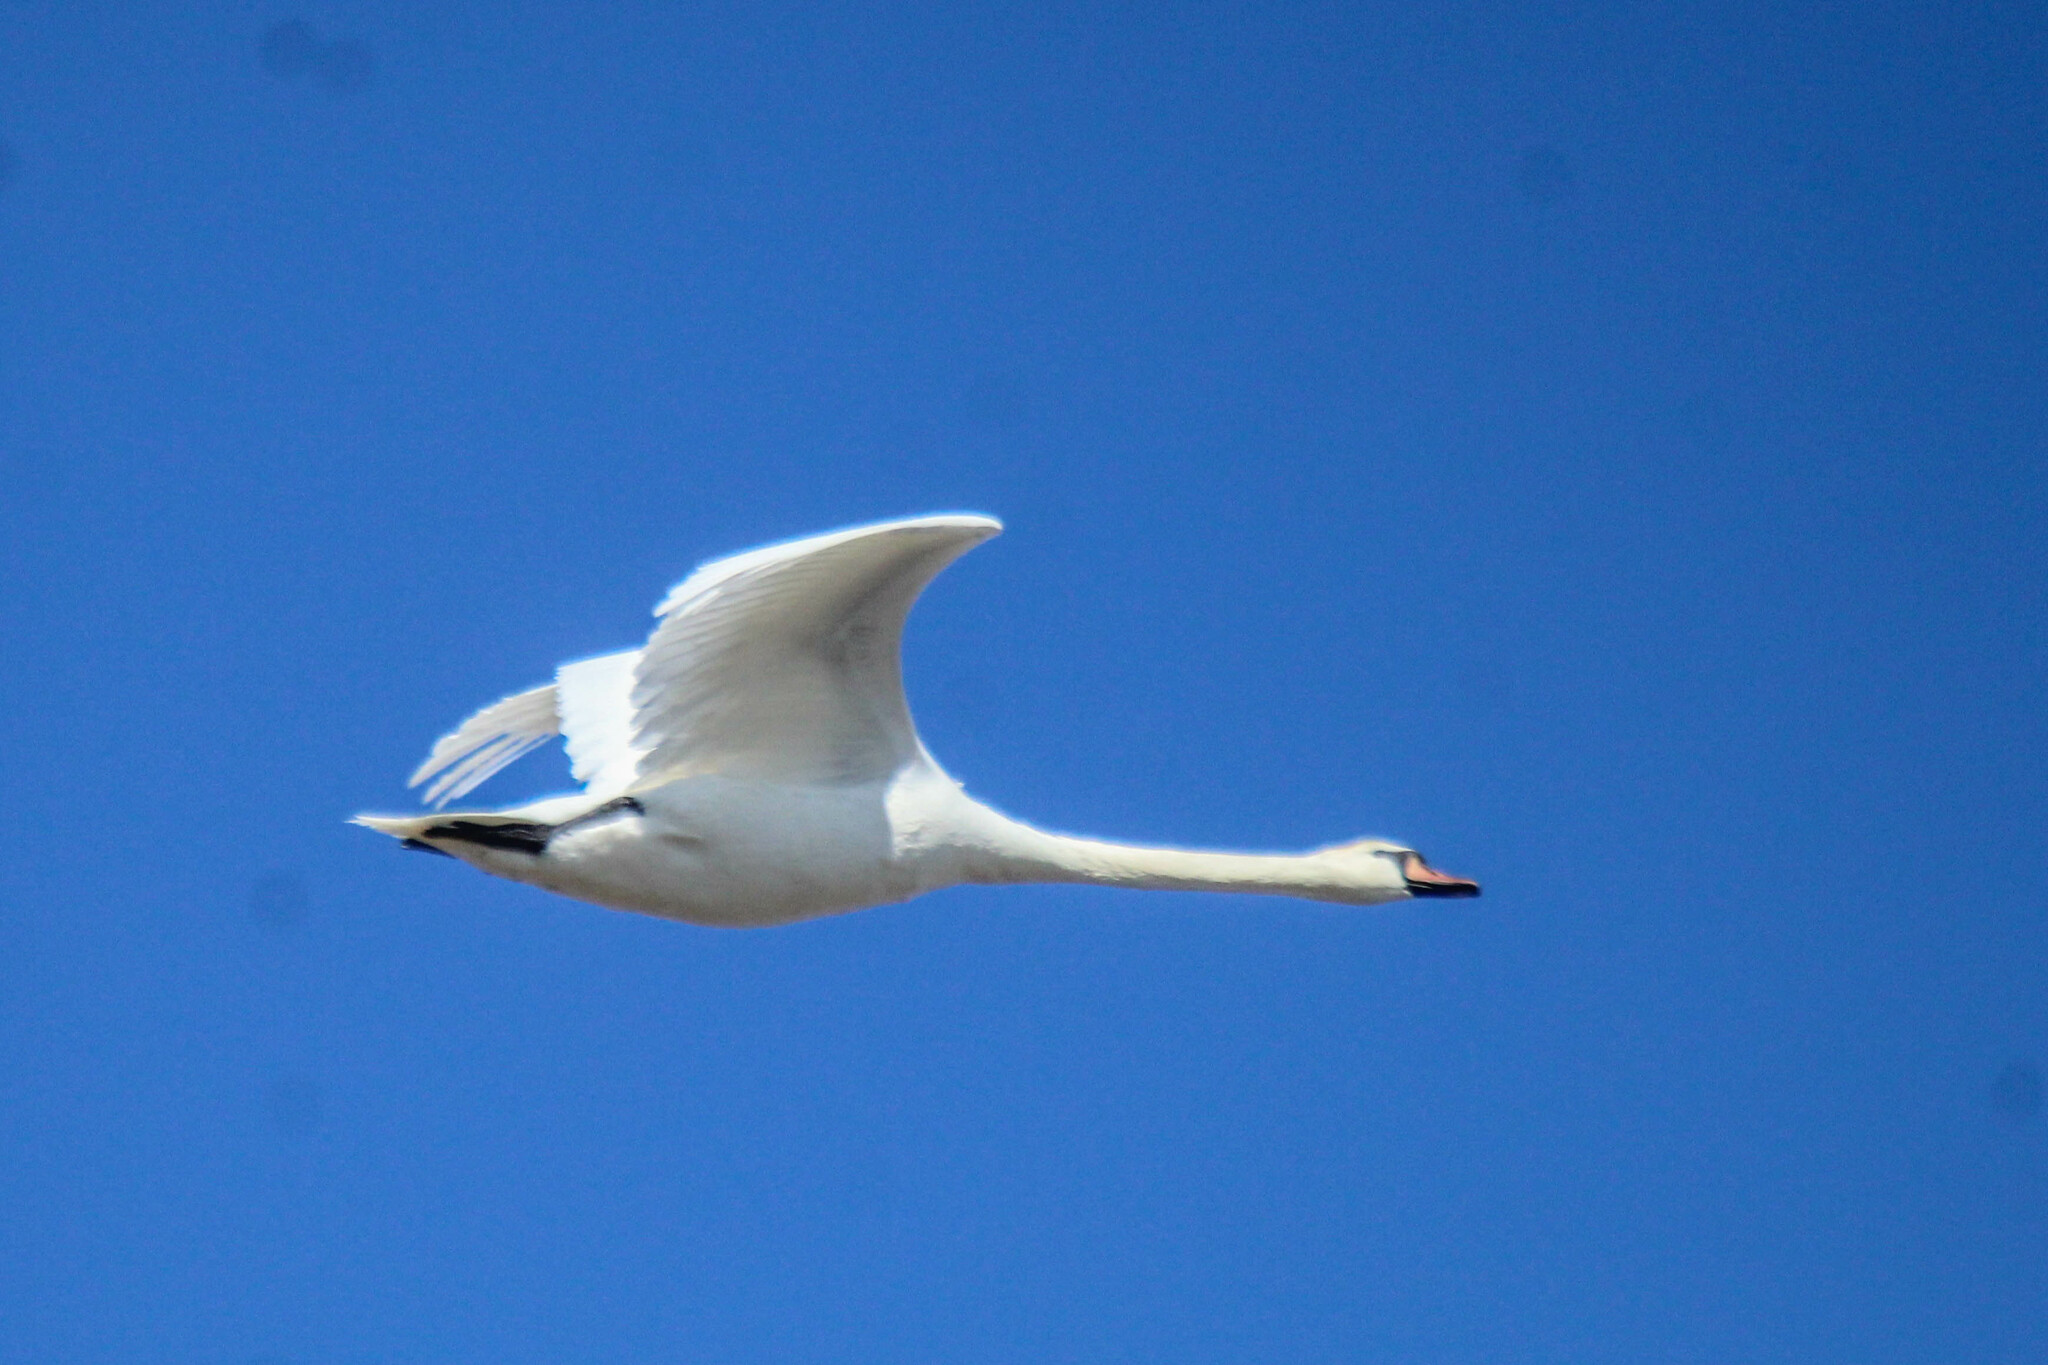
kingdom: Animalia
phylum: Chordata
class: Aves
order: Anseriformes
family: Anatidae
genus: Cygnus
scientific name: Cygnus olor
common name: Mute swan
